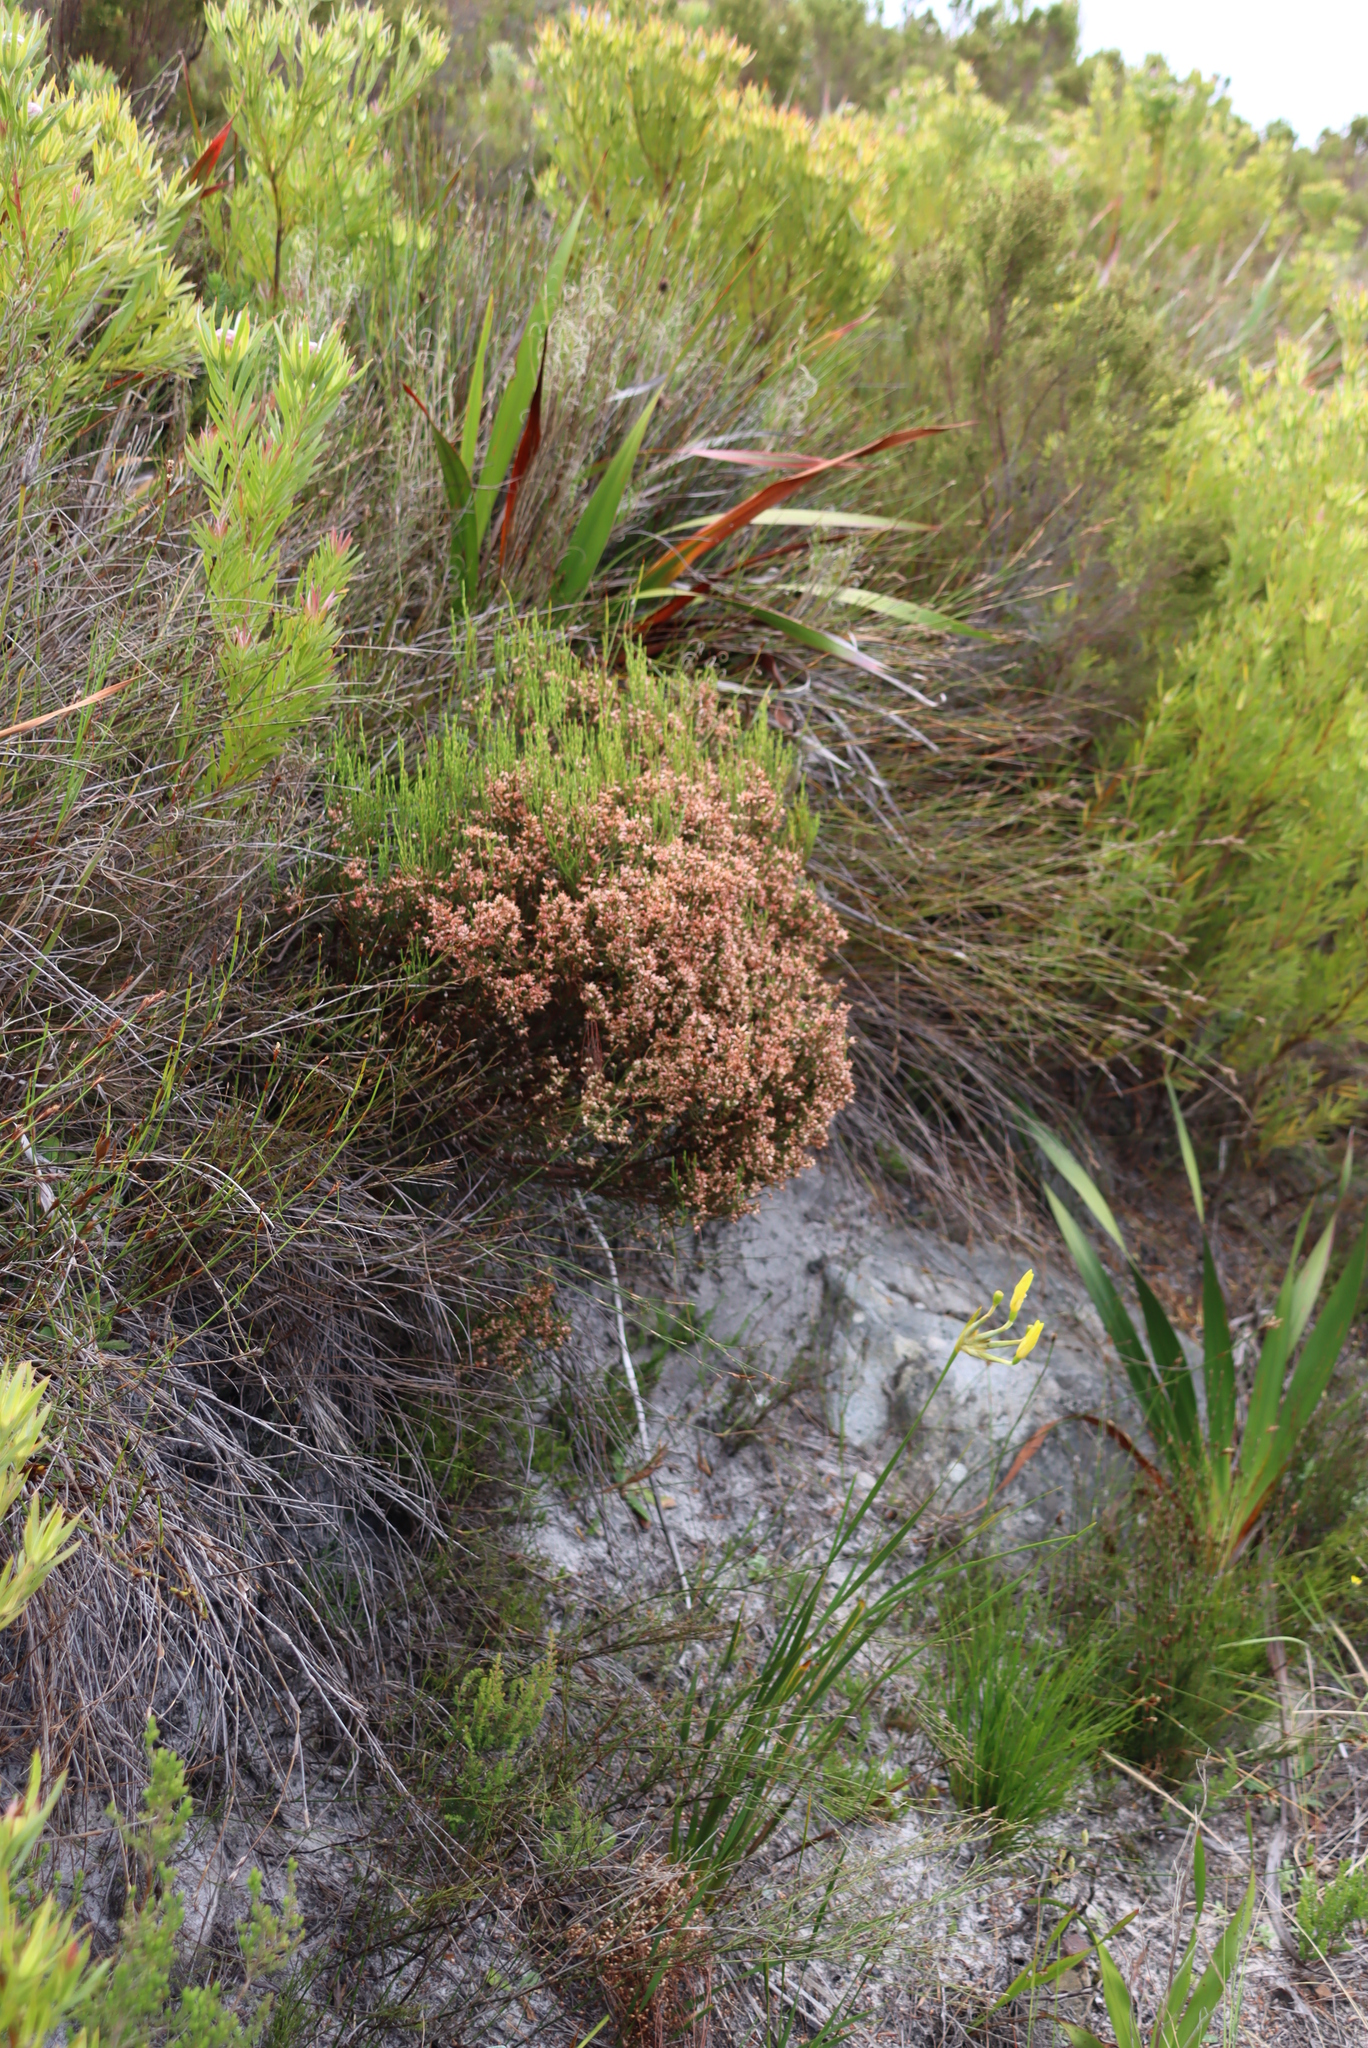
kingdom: Plantae
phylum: Tracheophyta
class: Magnoliopsida
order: Ericales
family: Ericaceae
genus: Erica
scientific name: Erica lutea
